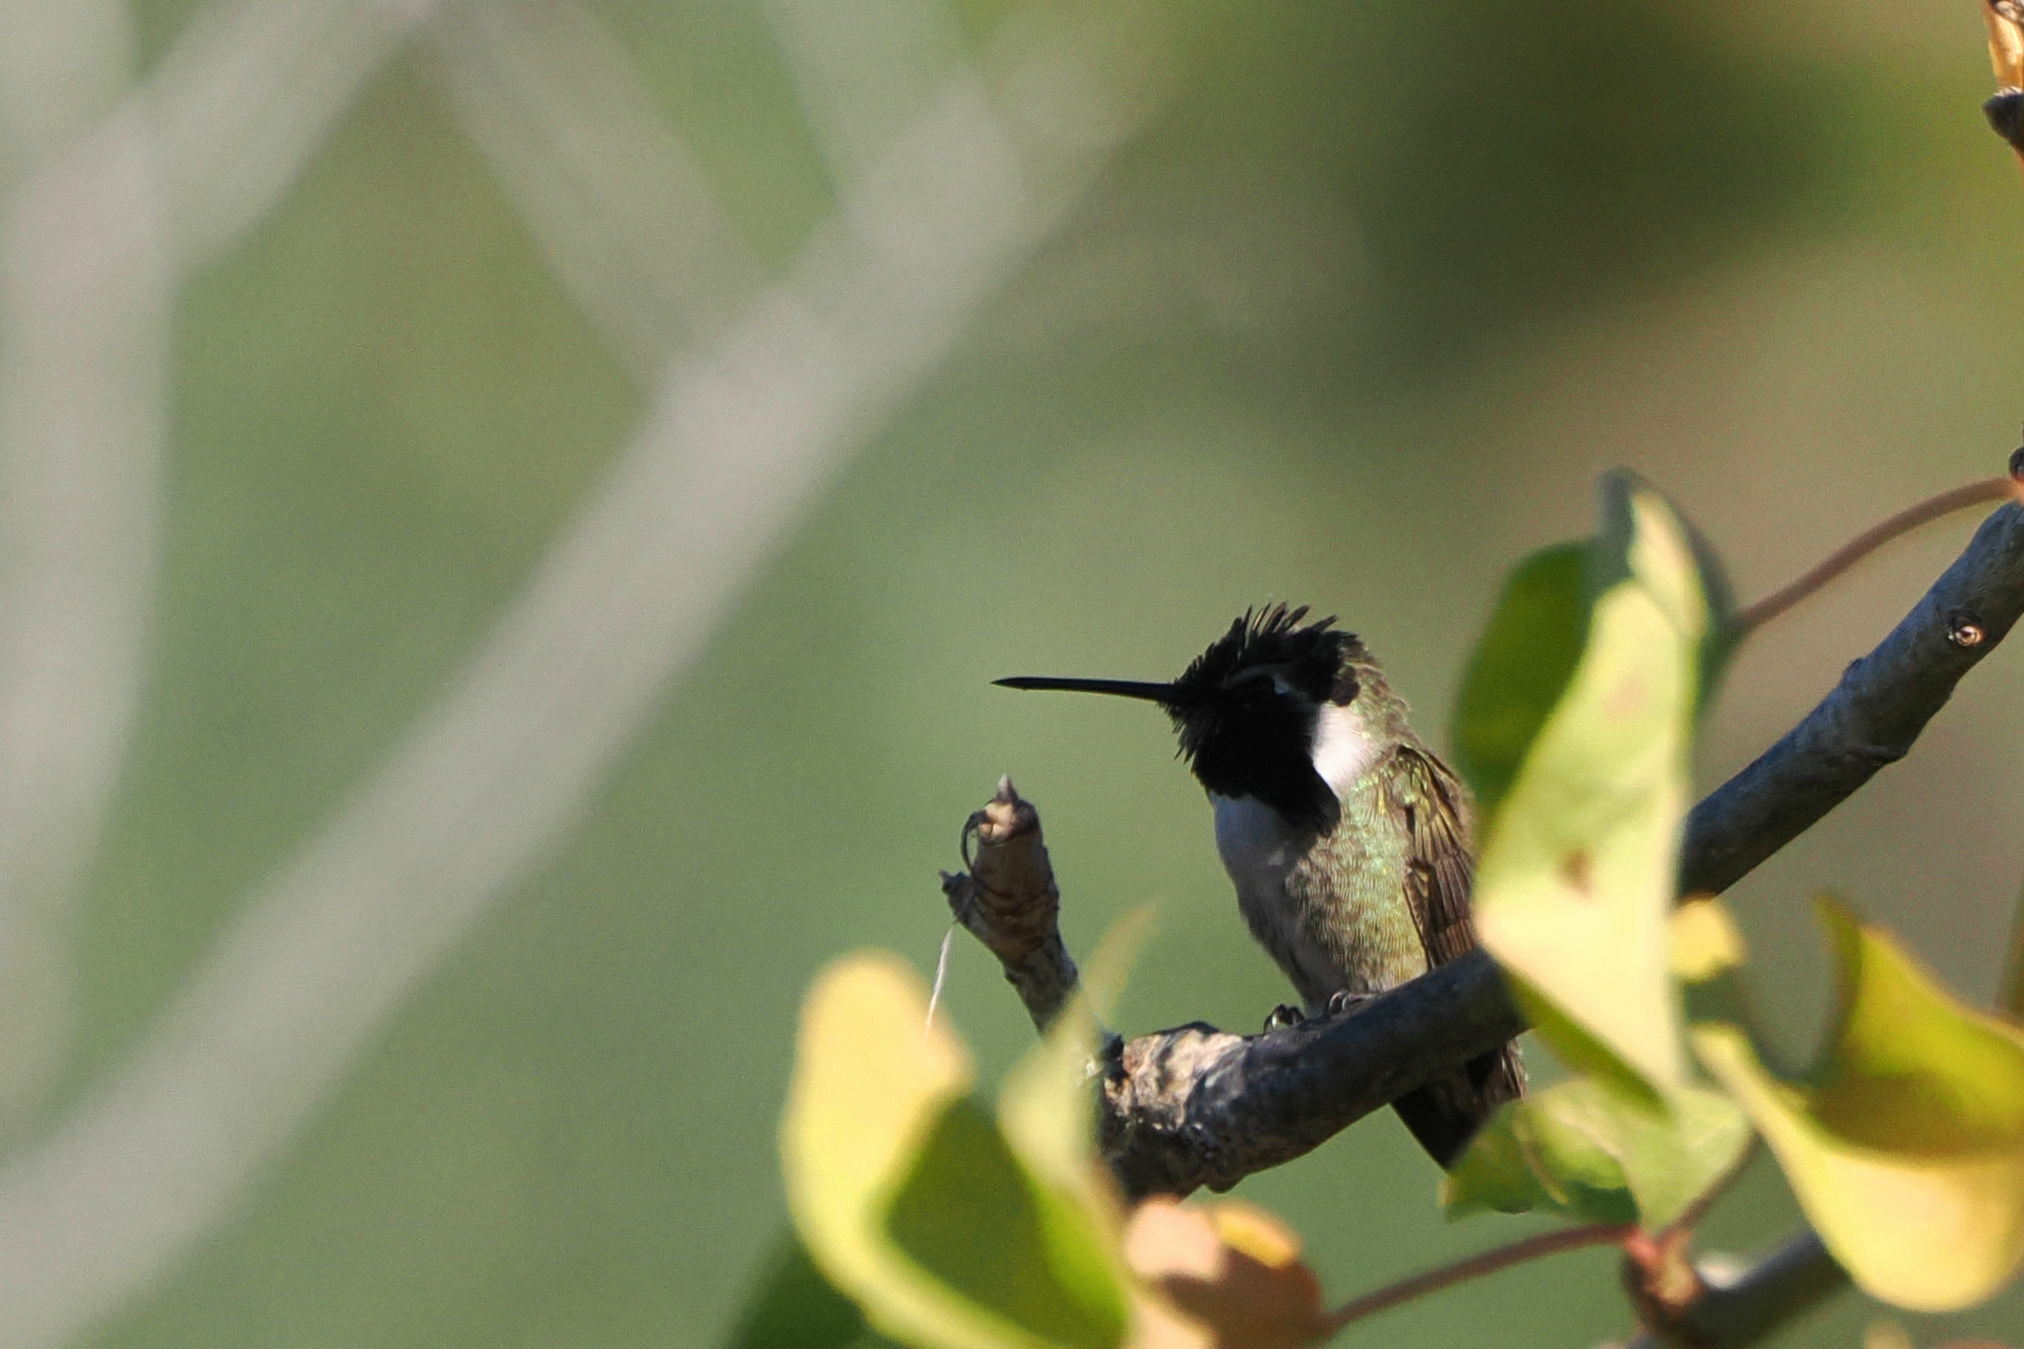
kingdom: Animalia
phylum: Chordata
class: Aves
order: Apodiformes
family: Trochilidae
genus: Calypte
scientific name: Calypte costae
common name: Costa's hummingbird
